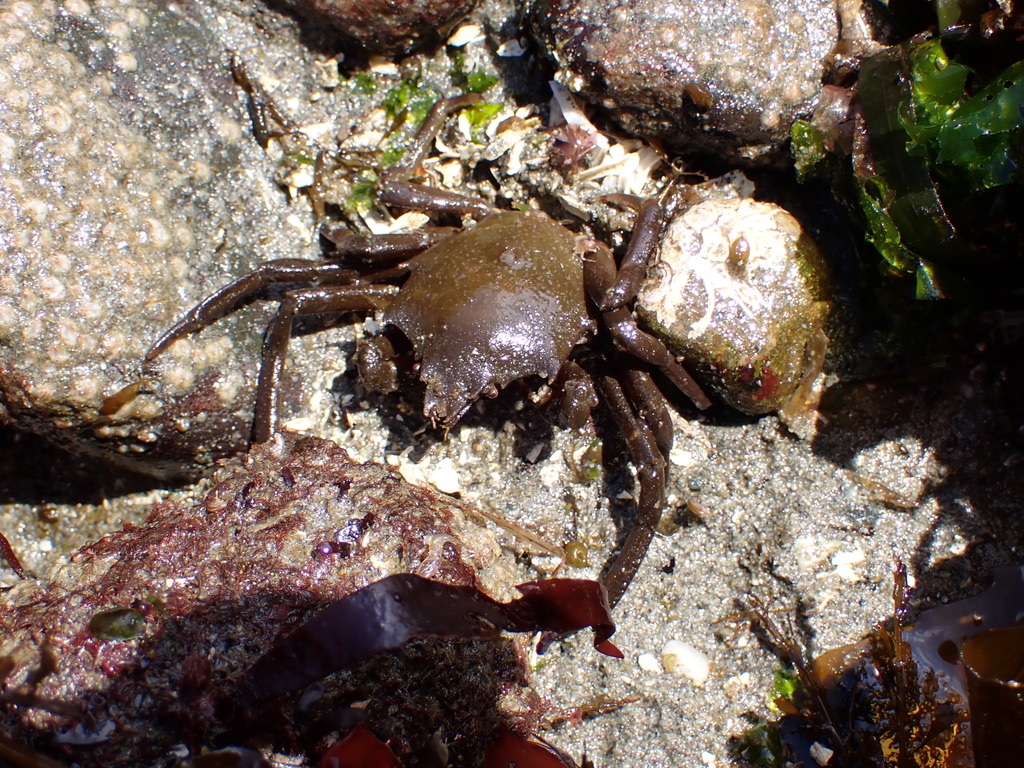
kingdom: Animalia
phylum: Arthropoda
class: Malacostraca
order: Decapoda
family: Epialtidae
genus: Pugettia
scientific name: Pugettia producta
